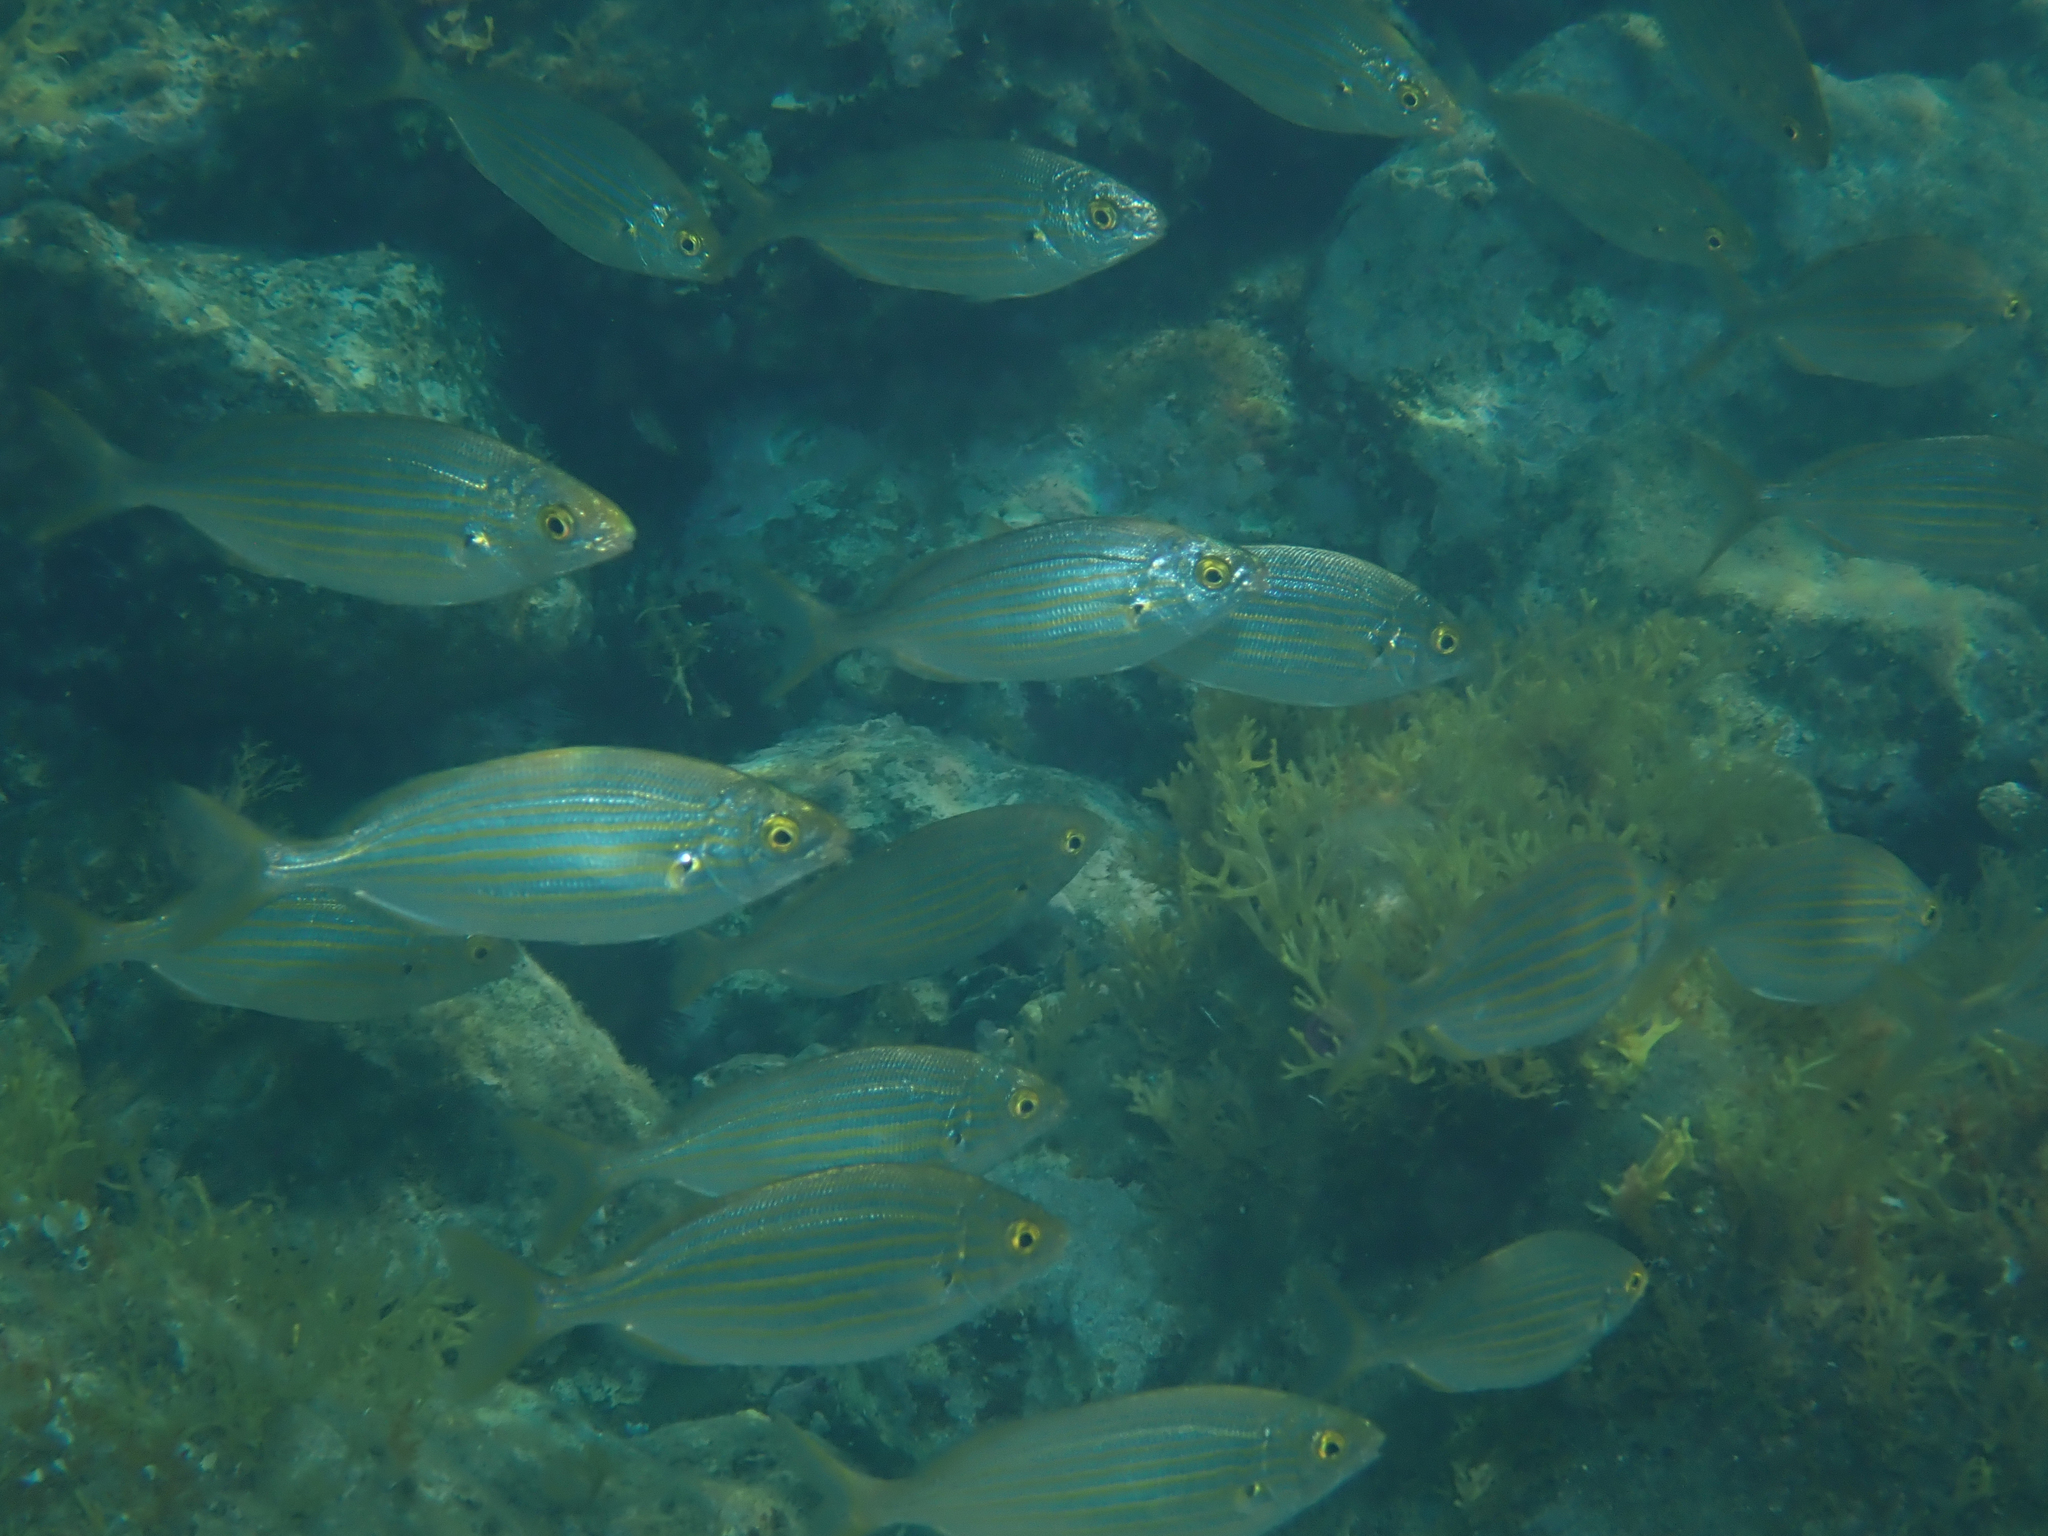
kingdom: Animalia
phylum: Chordata
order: Perciformes
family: Sparidae
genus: Sarpa
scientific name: Sarpa salpa
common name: Salema
